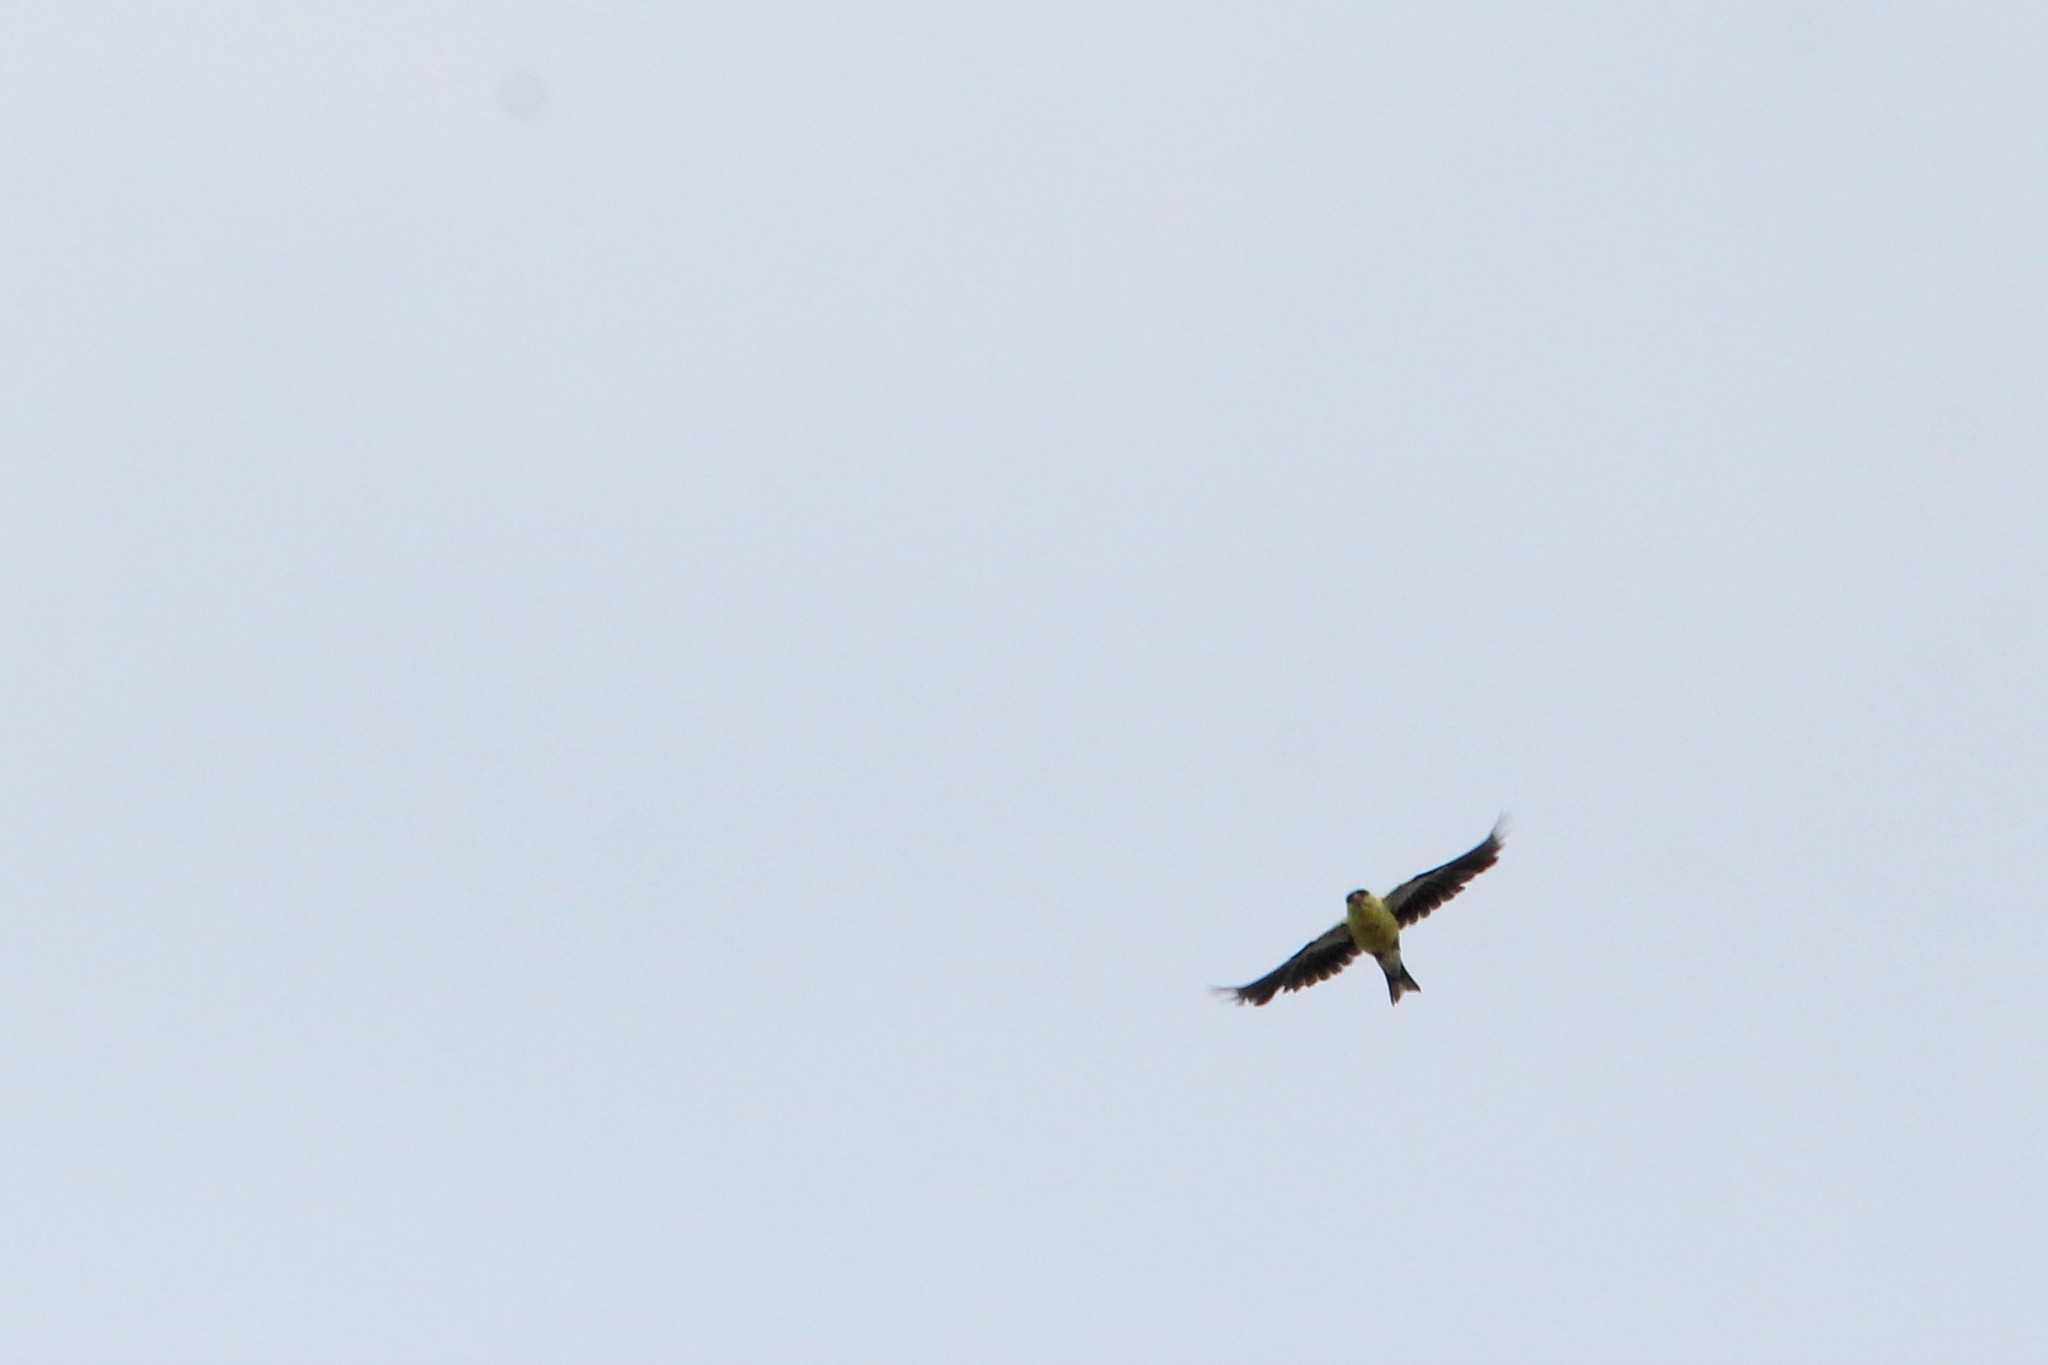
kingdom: Animalia
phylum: Chordata
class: Aves
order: Passeriformes
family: Fringillidae
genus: Spinus
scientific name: Spinus tristis
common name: American goldfinch
